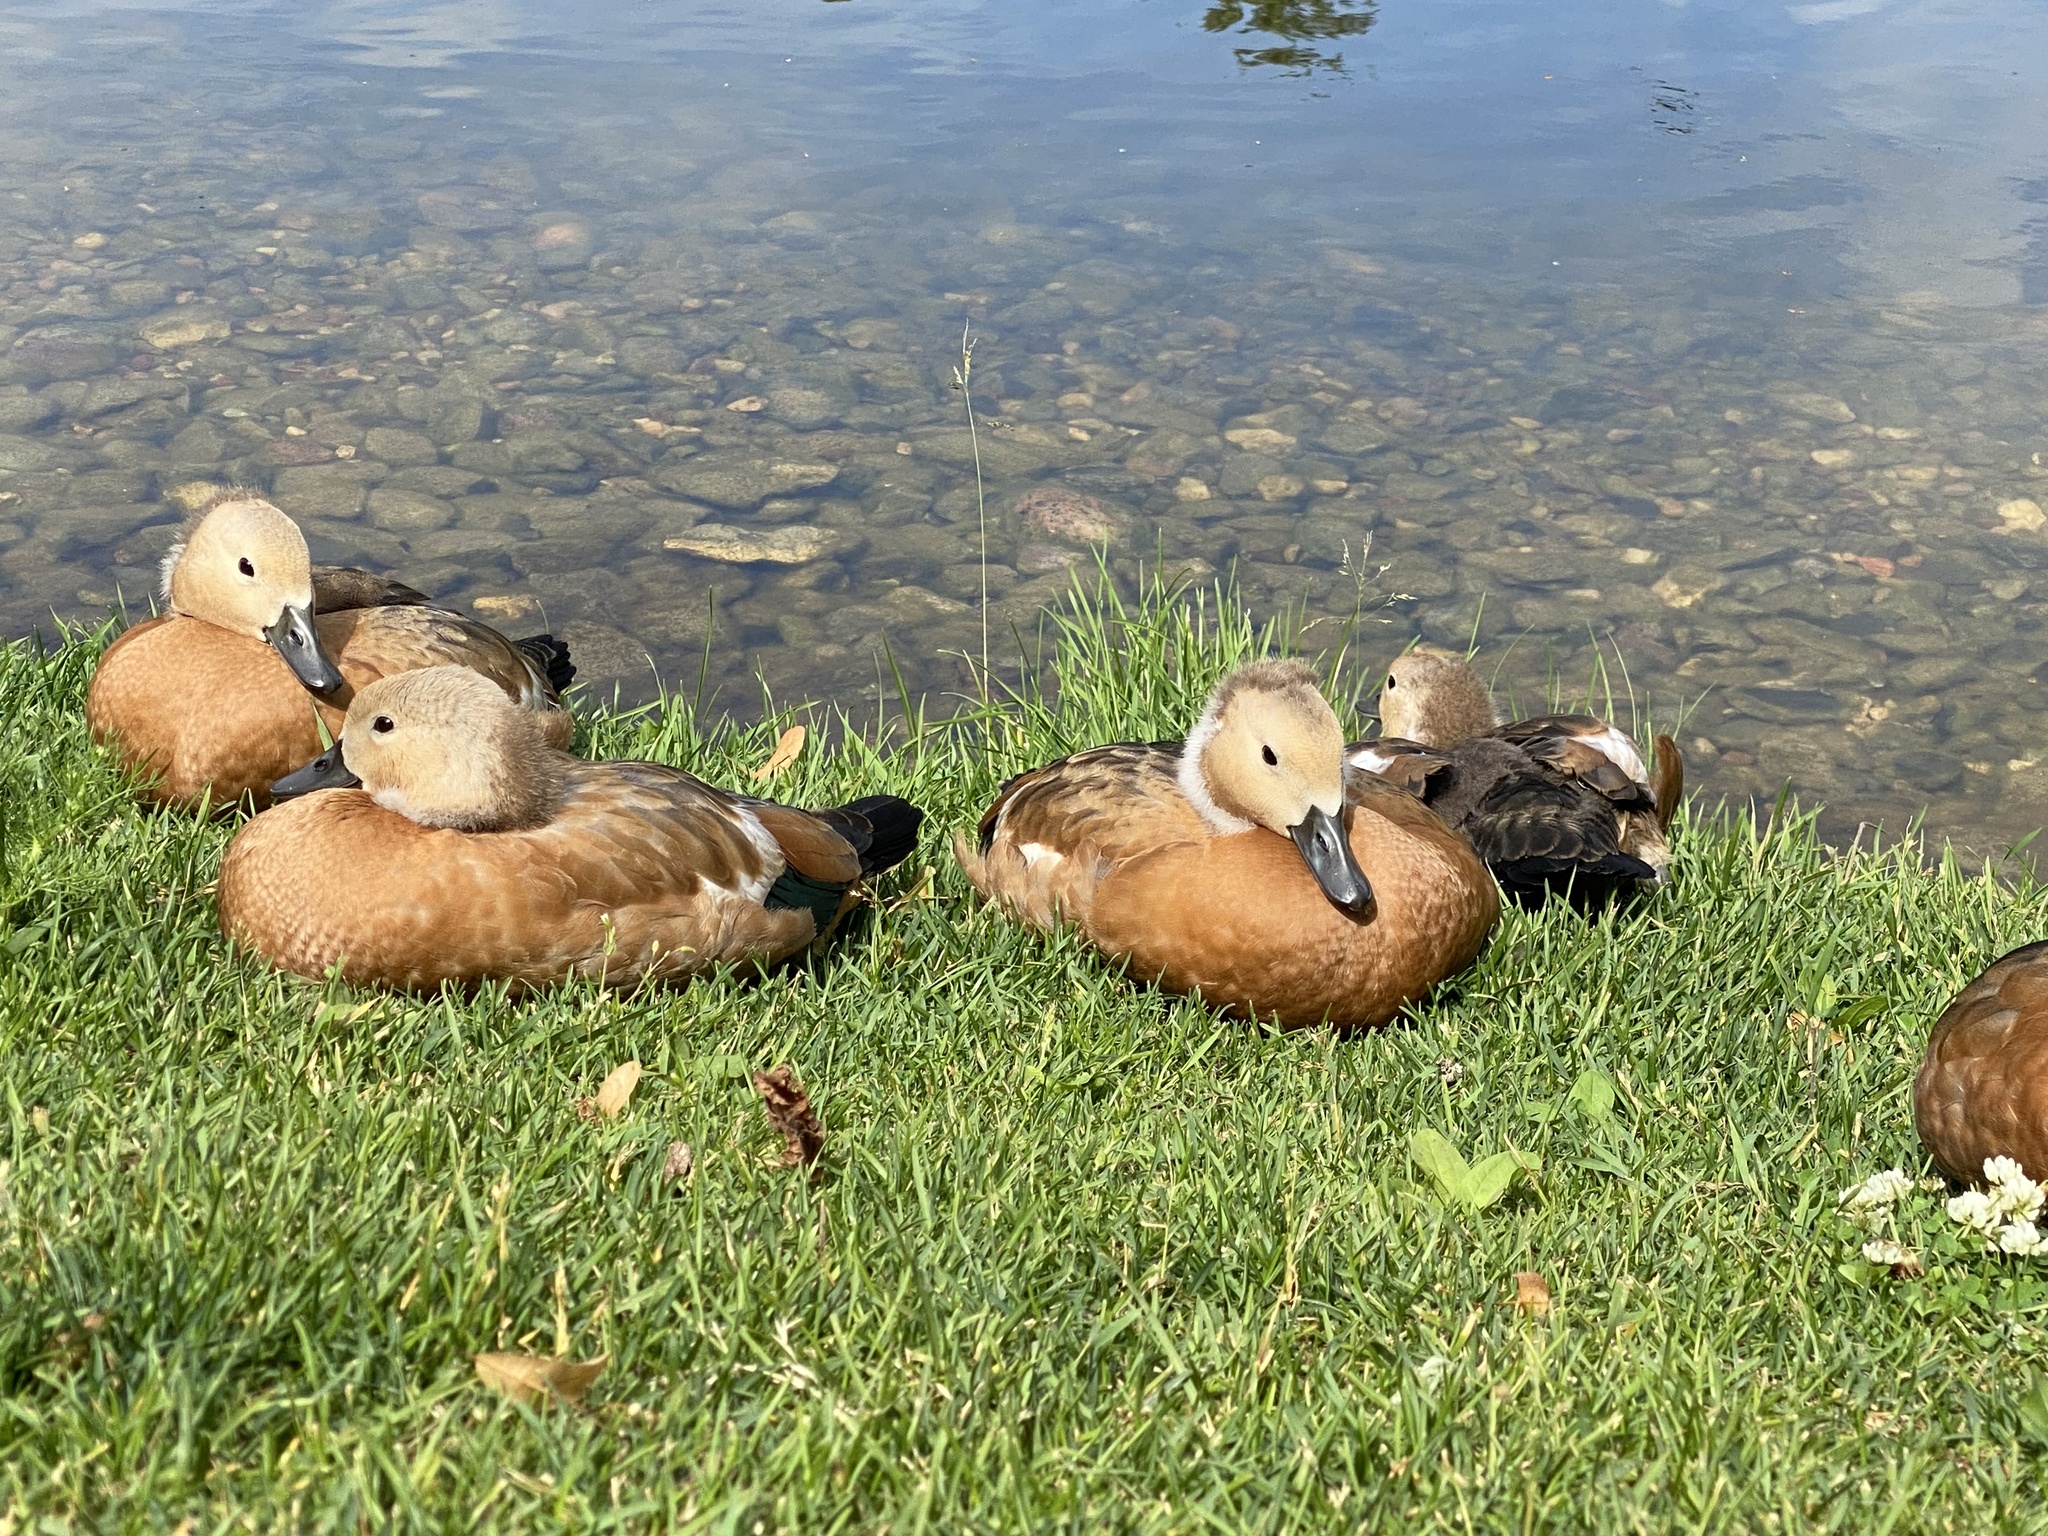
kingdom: Animalia
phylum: Chordata
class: Aves
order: Anseriformes
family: Anatidae
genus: Tadorna
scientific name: Tadorna ferruginea
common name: Ruddy shelduck
